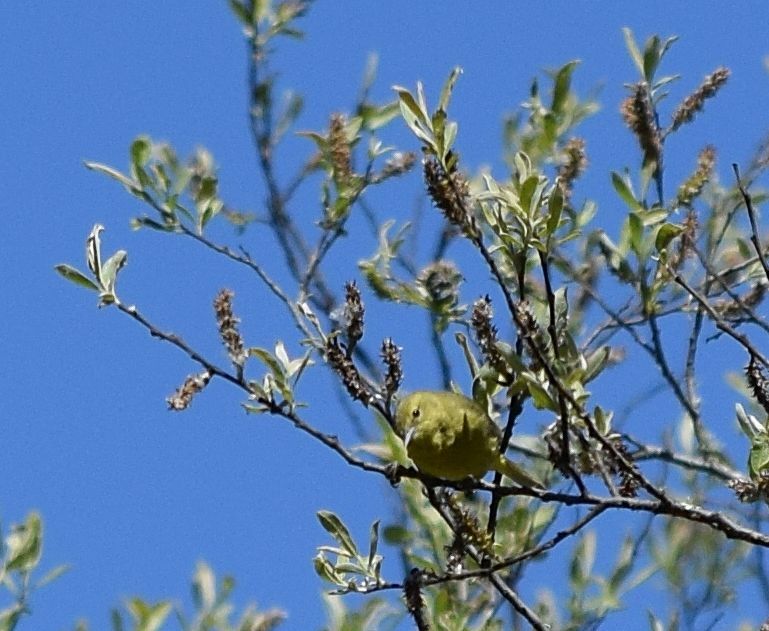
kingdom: Animalia
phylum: Chordata
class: Aves
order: Passeriformes
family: Parulidae
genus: Leiothlypis
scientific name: Leiothlypis celata
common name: Orange-crowned warbler
